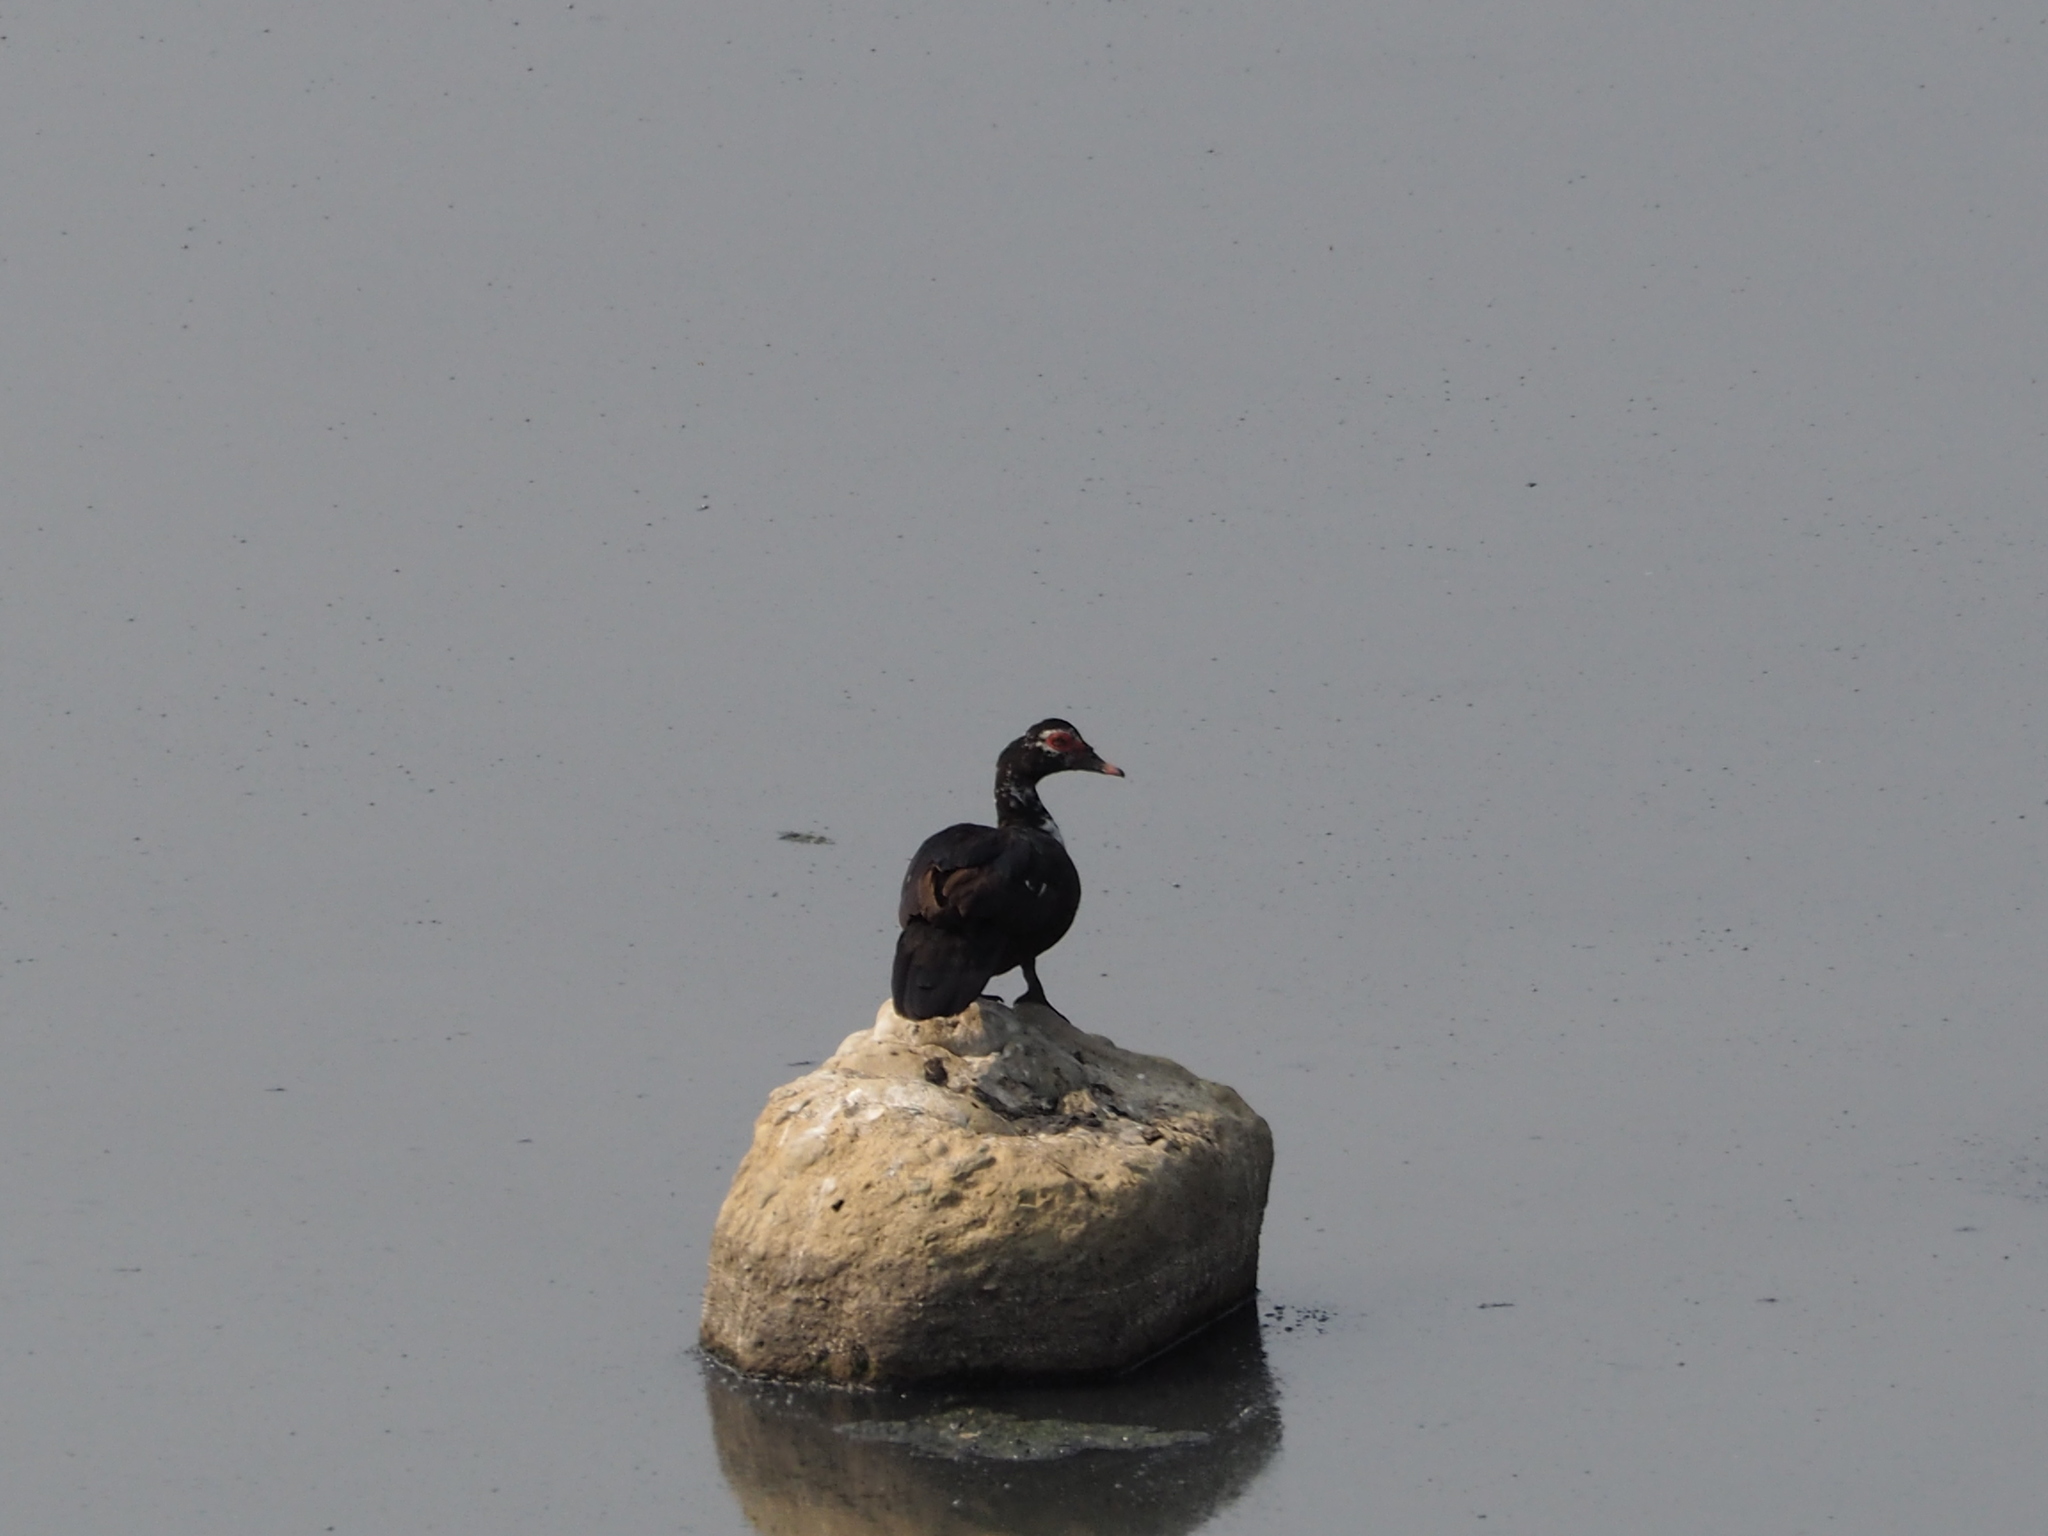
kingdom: Animalia
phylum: Chordata
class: Aves
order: Anseriformes
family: Anatidae
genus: Cairina
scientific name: Cairina moschata
